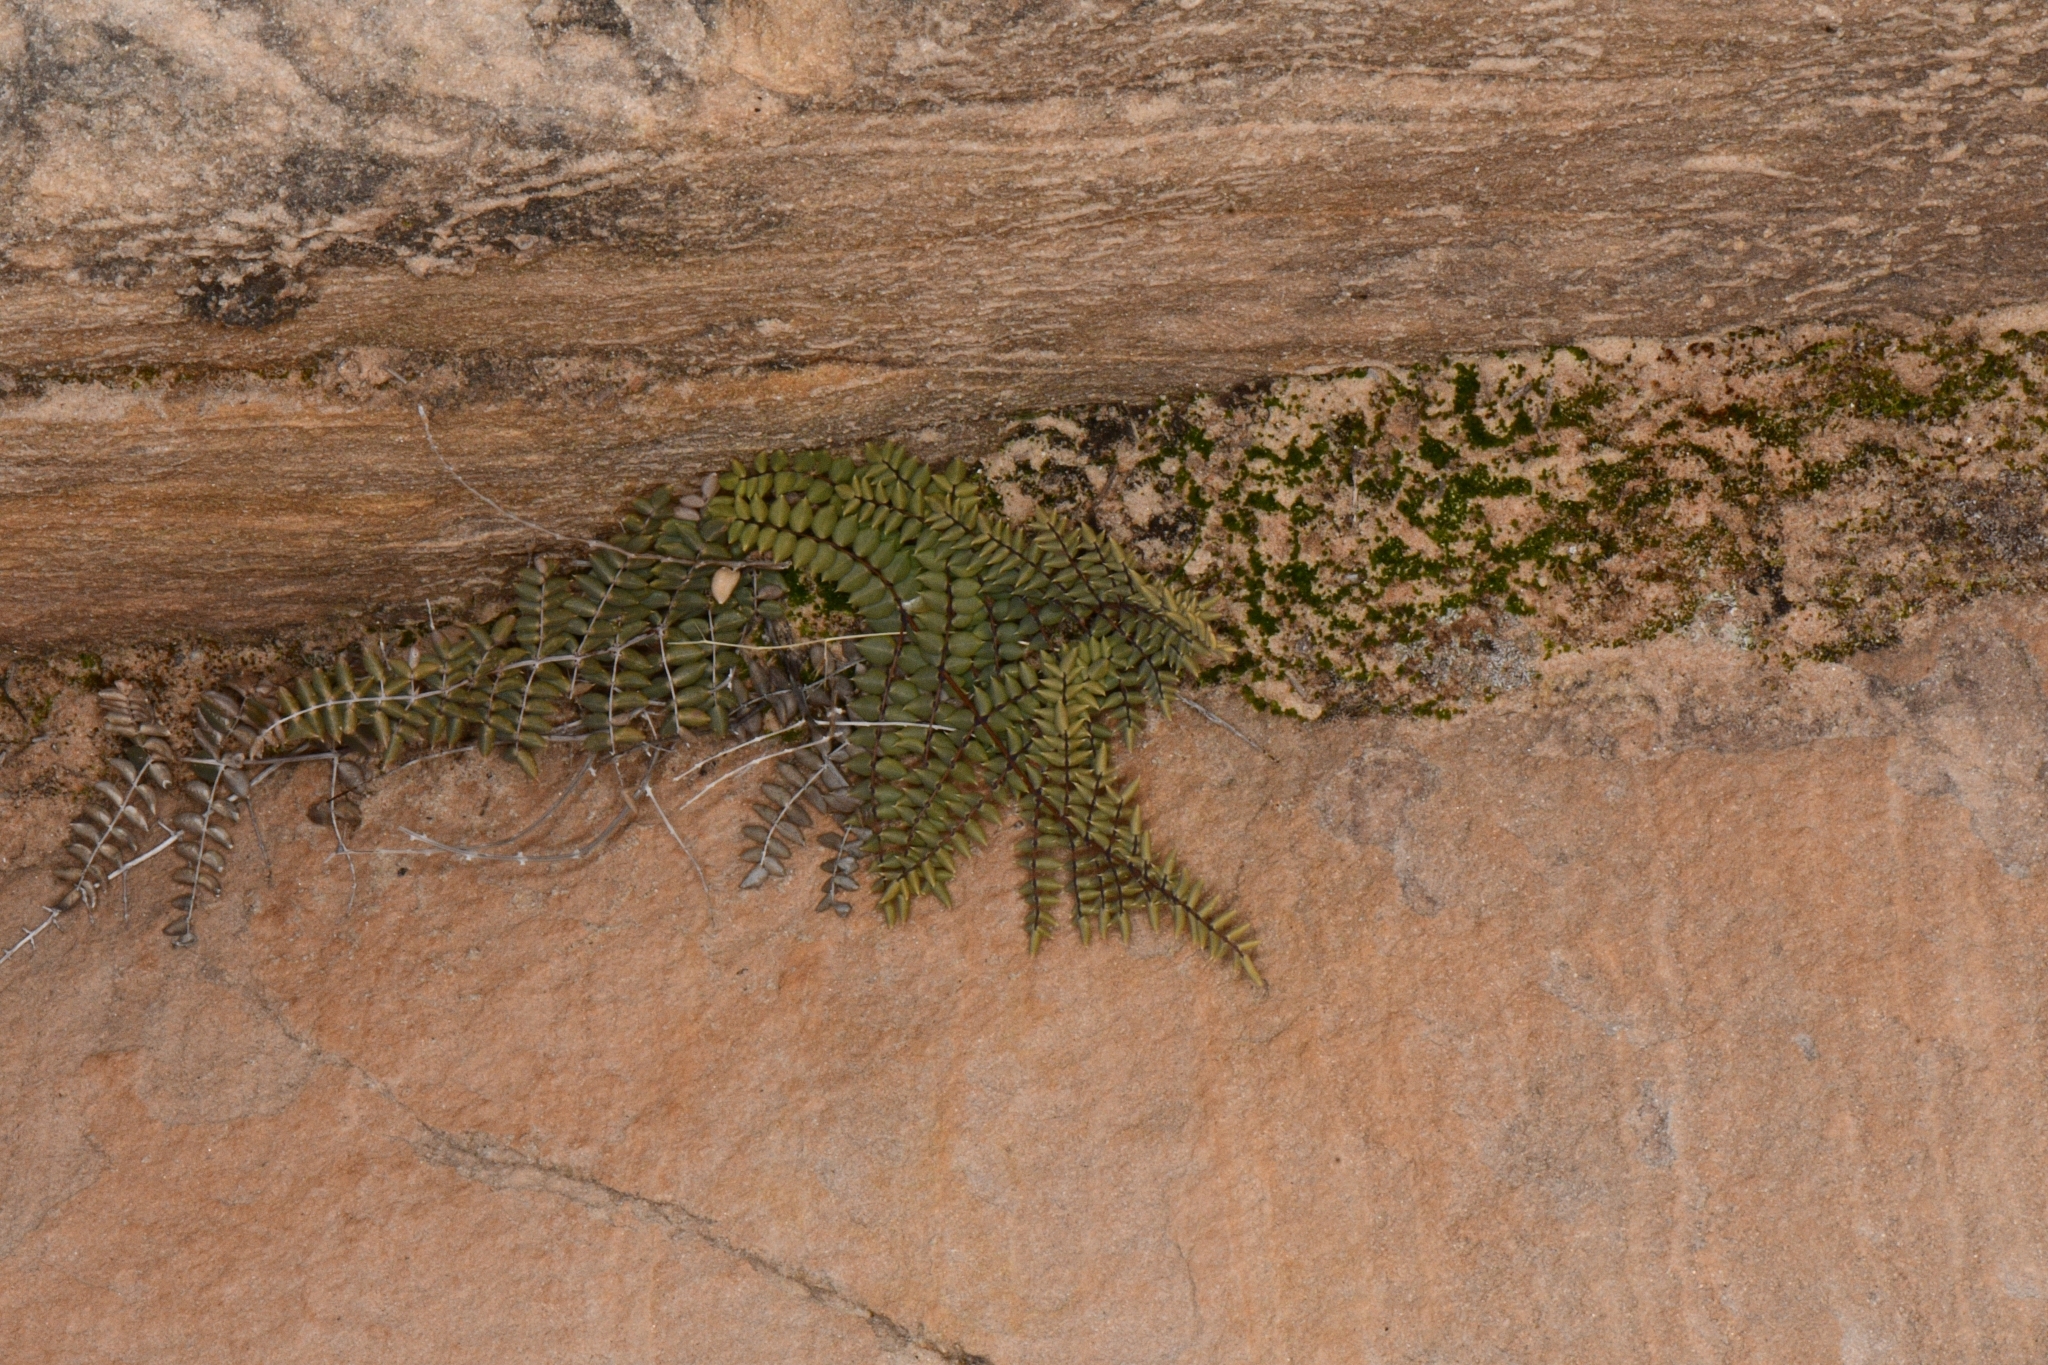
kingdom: Plantae
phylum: Tracheophyta
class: Polypodiopsida
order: Polypodiales
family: Pteridaceae
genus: Pellaea
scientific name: Pellaea truncata
